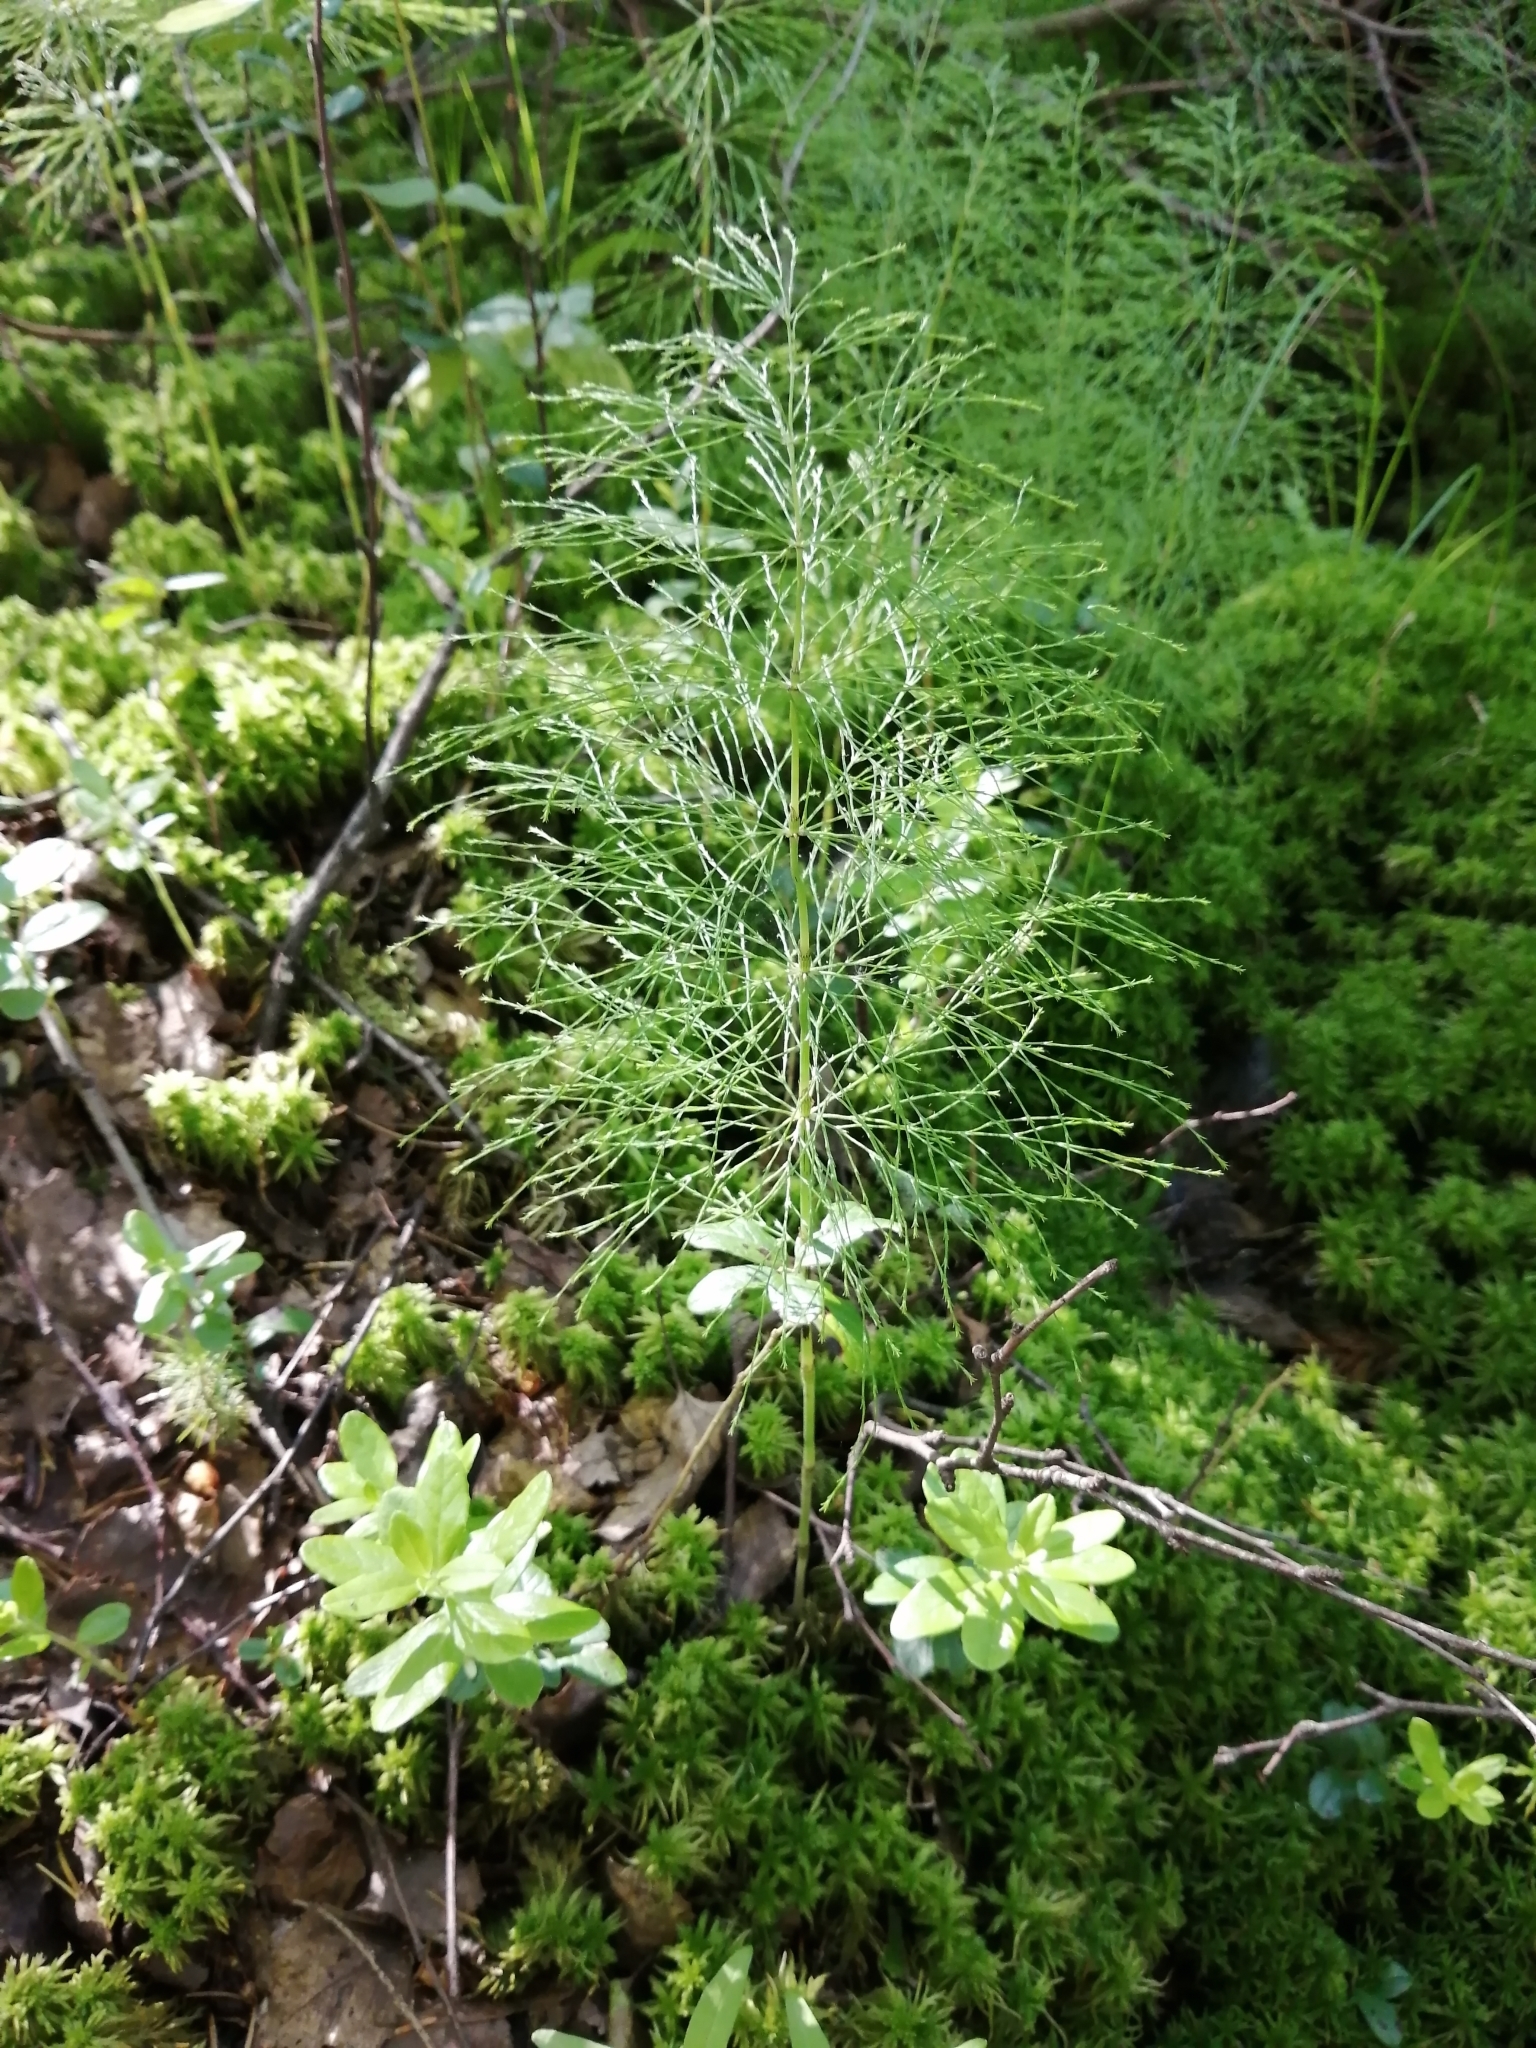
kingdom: Plantae
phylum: Tracheophyta
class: Polypodiopsida
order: Equisetales
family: Equisetaceae
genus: Equisetum
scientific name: Equisetum sylvaticum
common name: Wood horsetail
